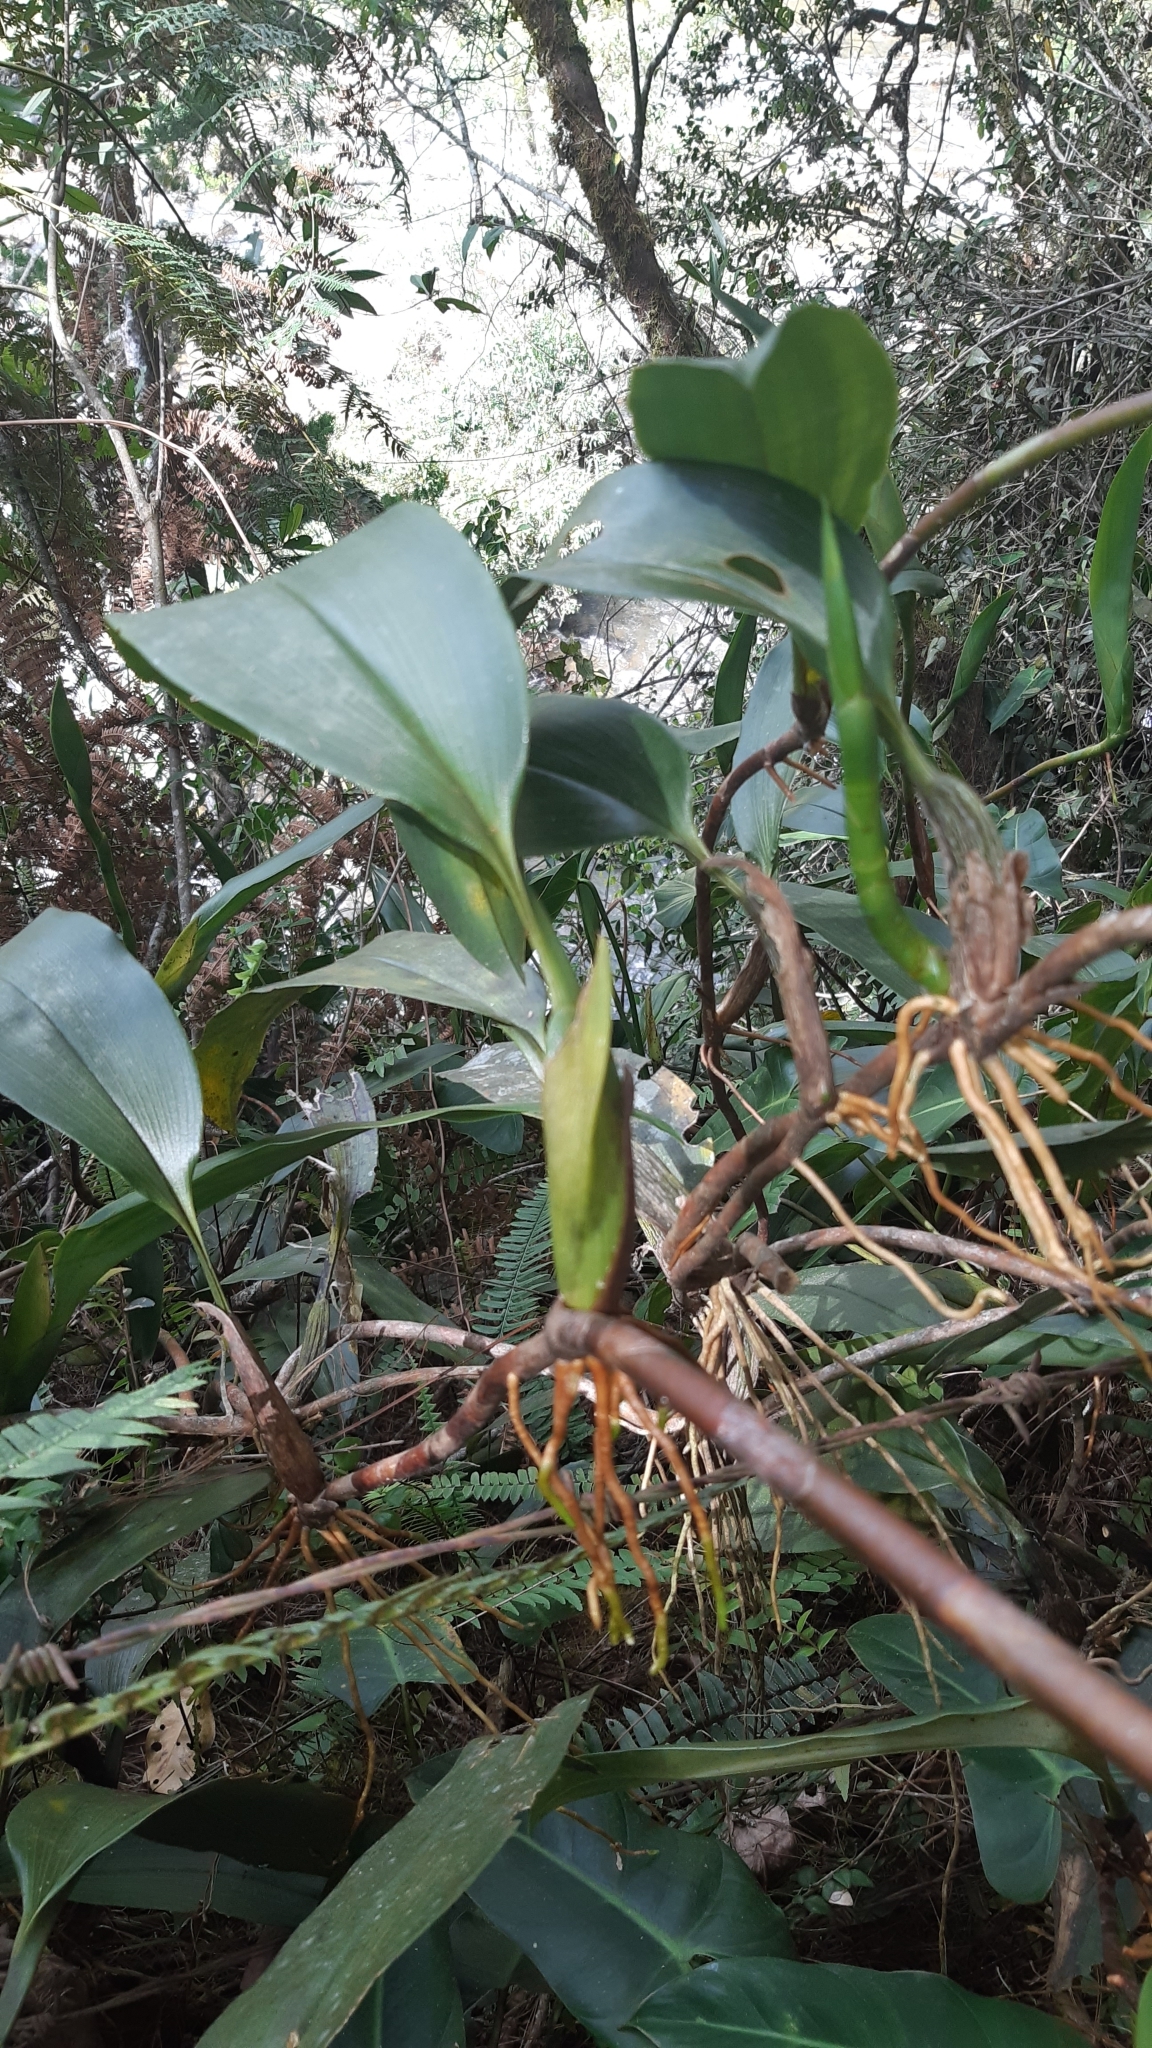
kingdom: Plantae
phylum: Tracheophyta
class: Liliopsida
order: Asparagales
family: Orchidaceae
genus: Maxillaria
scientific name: Maxillaria schlimii
